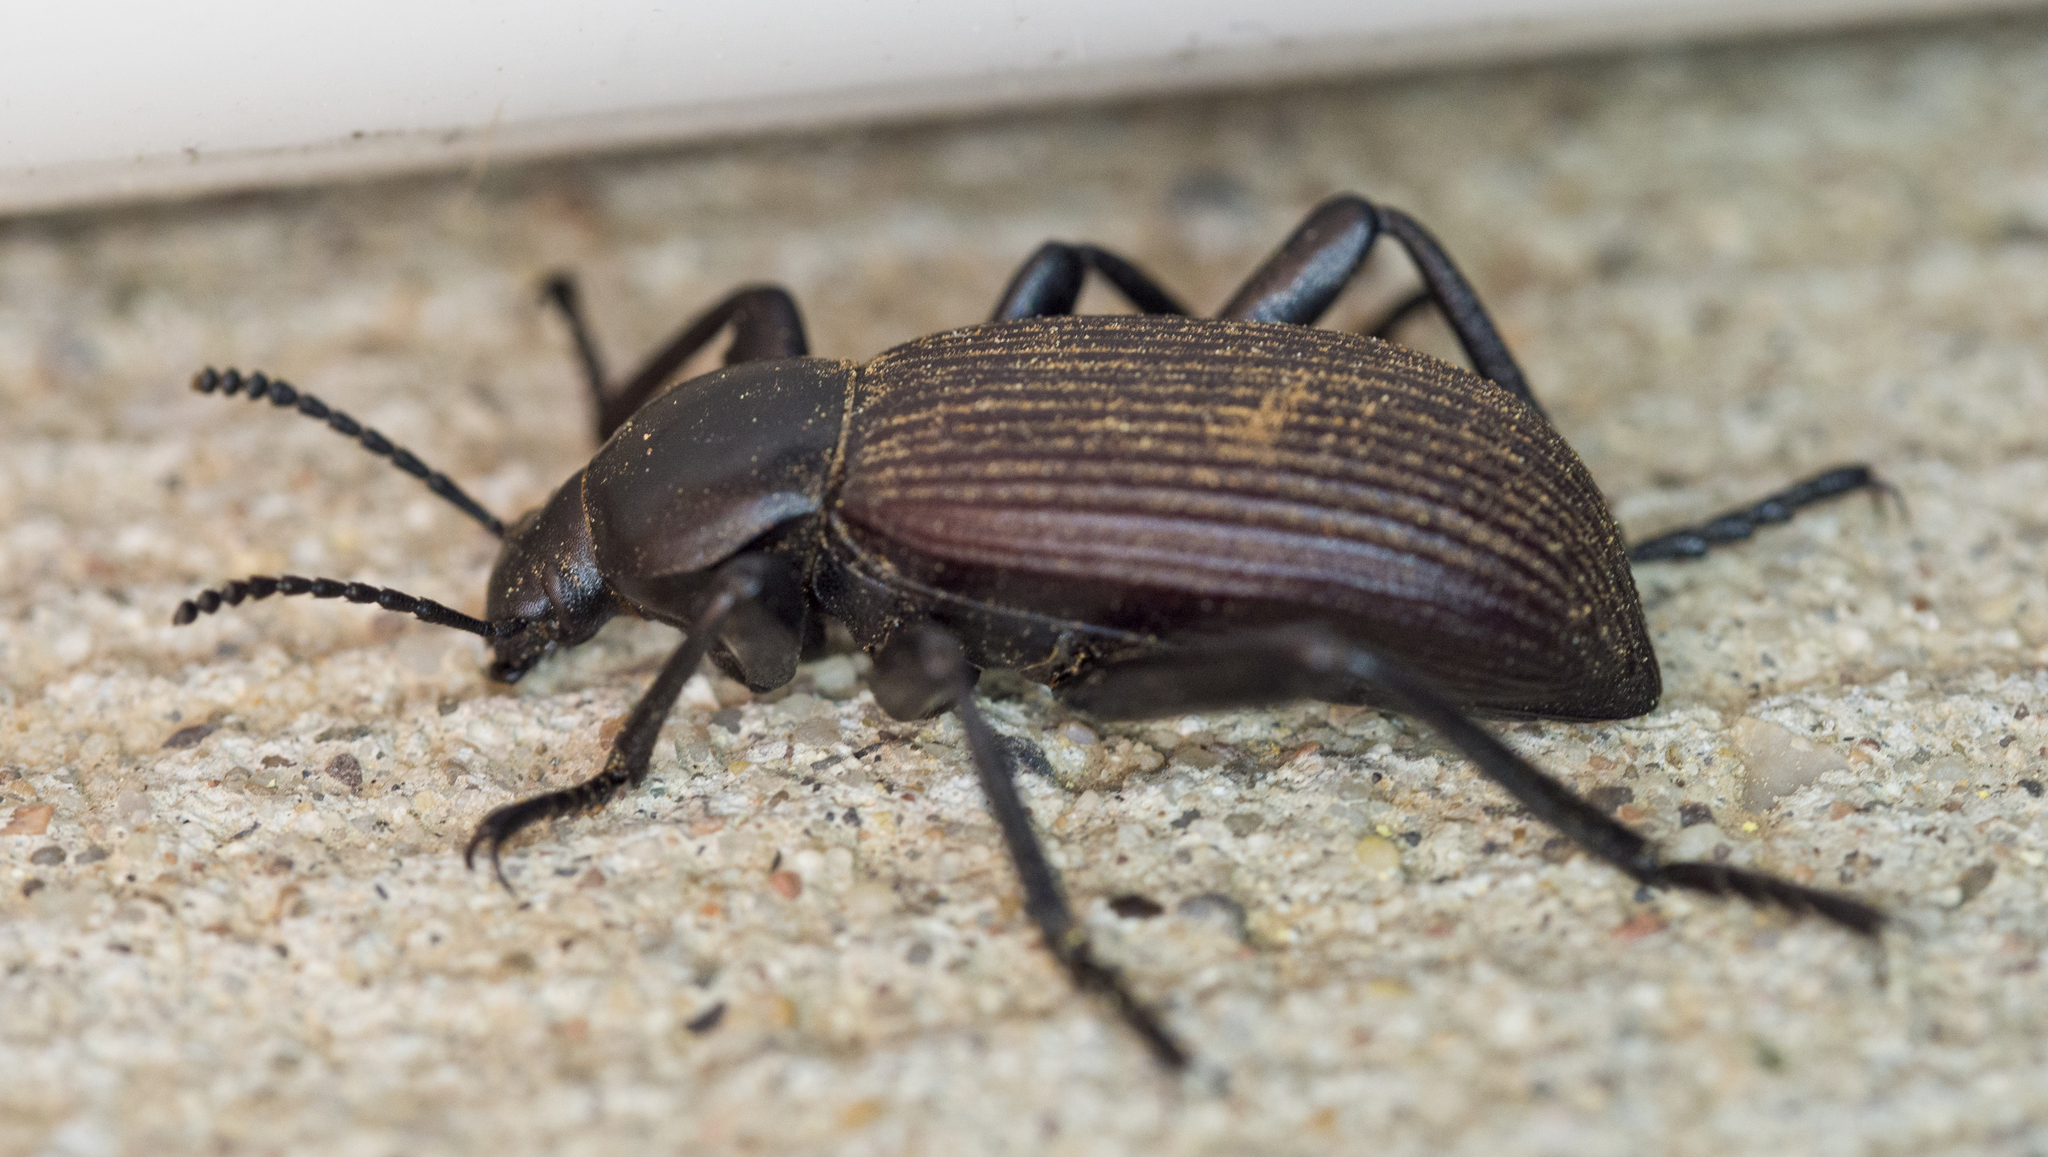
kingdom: Animalia
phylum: Arthropoda
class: Insecta
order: Coleoptera
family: Tenebrionidae
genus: Eleodes
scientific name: Eleodes obscura
